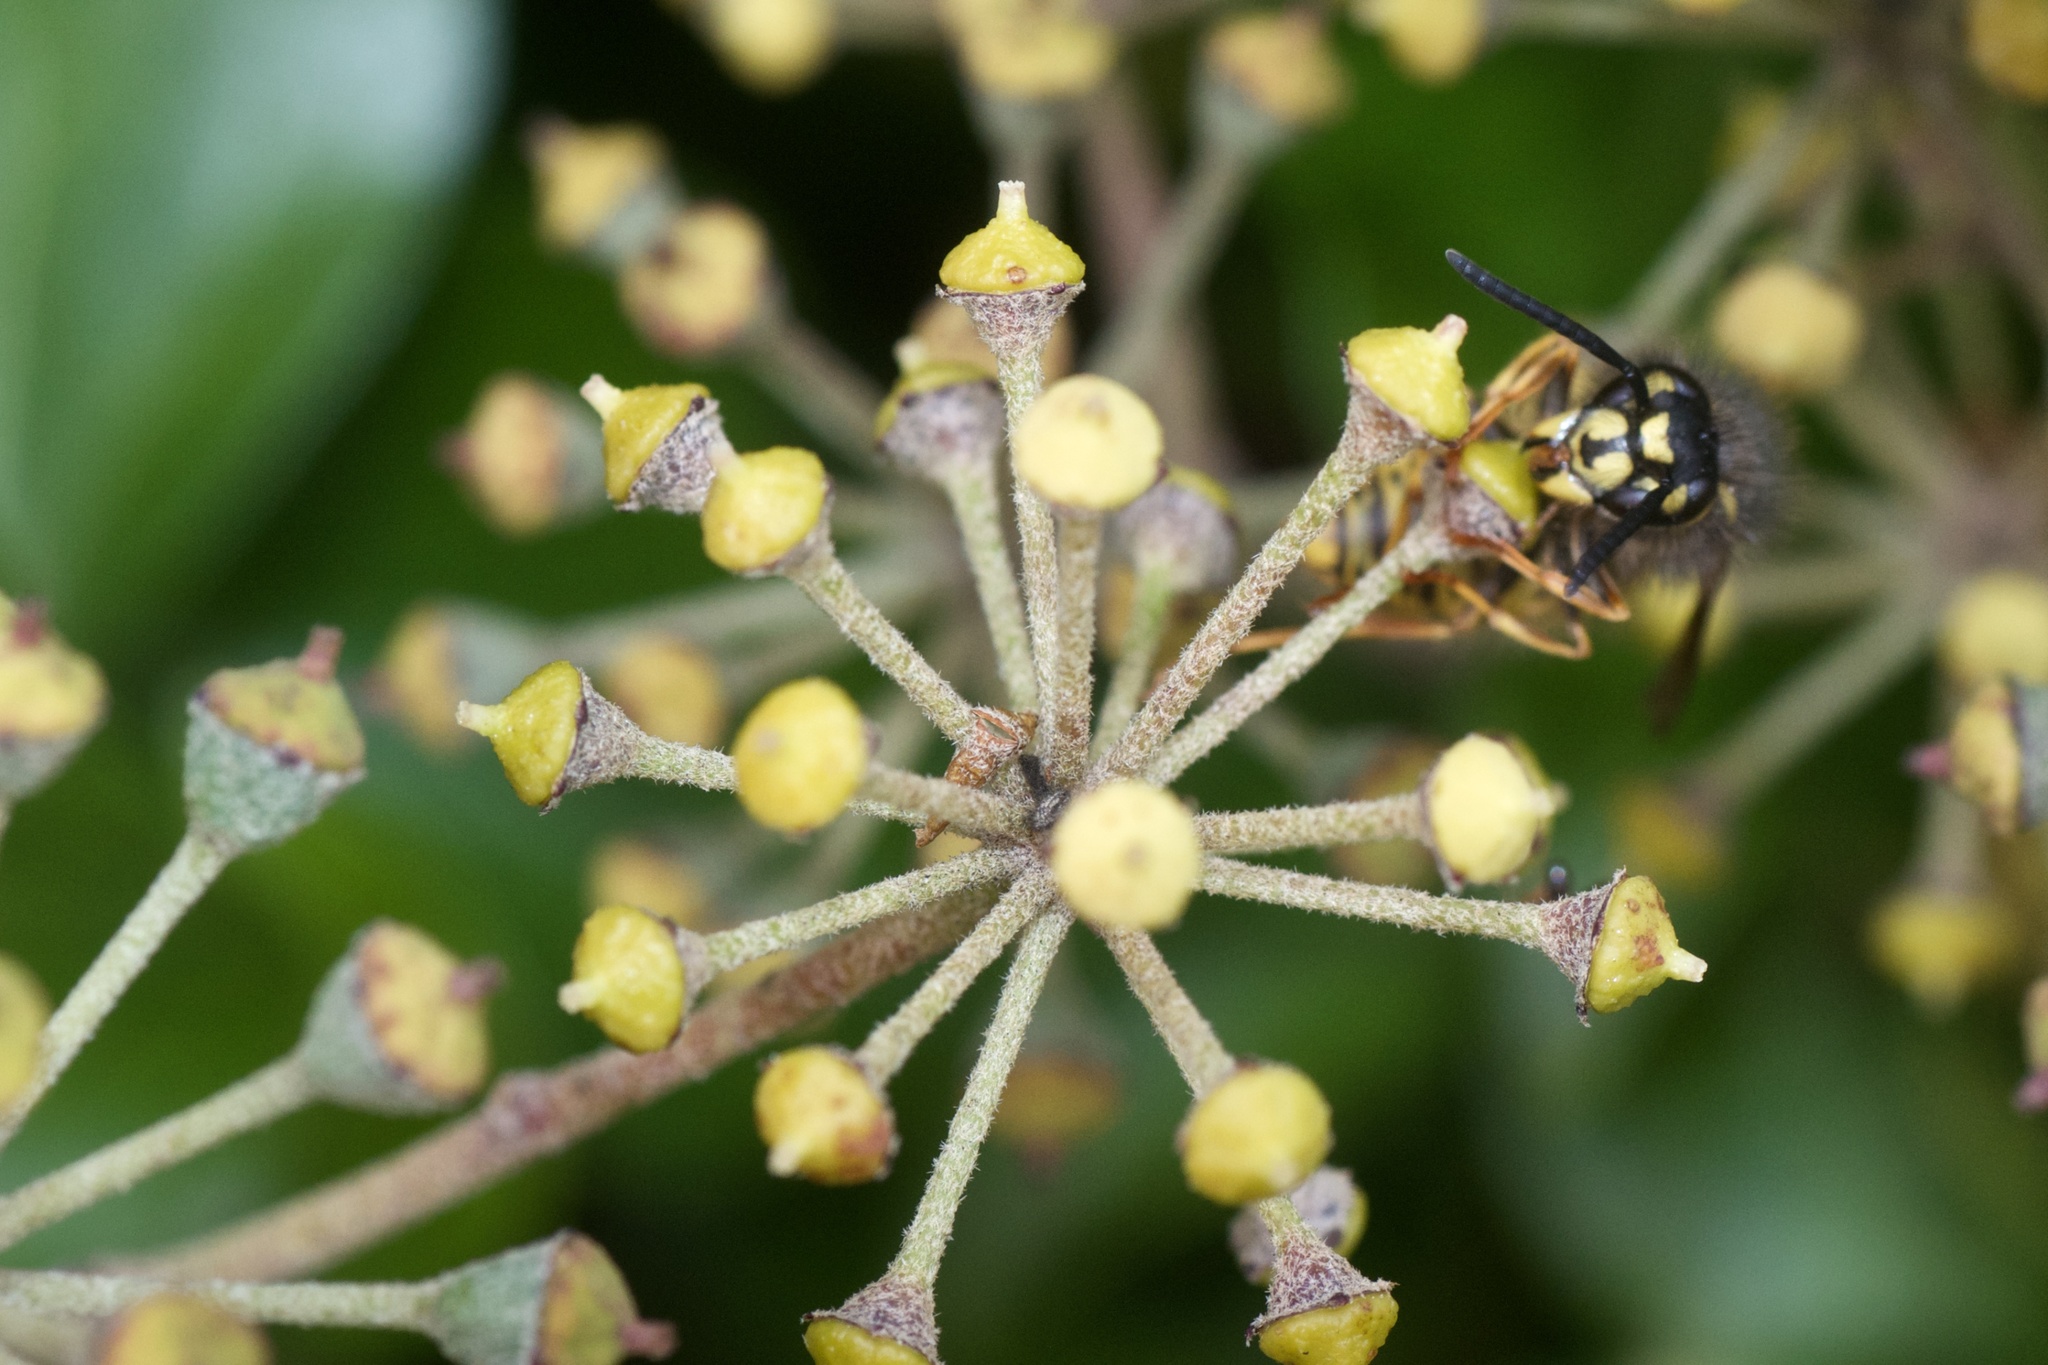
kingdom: Animalia
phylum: Arthropoda
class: Insecta
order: Hymenoptera
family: Vespidae
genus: Vespula
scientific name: Vespula vulgaris
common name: Common wasp
